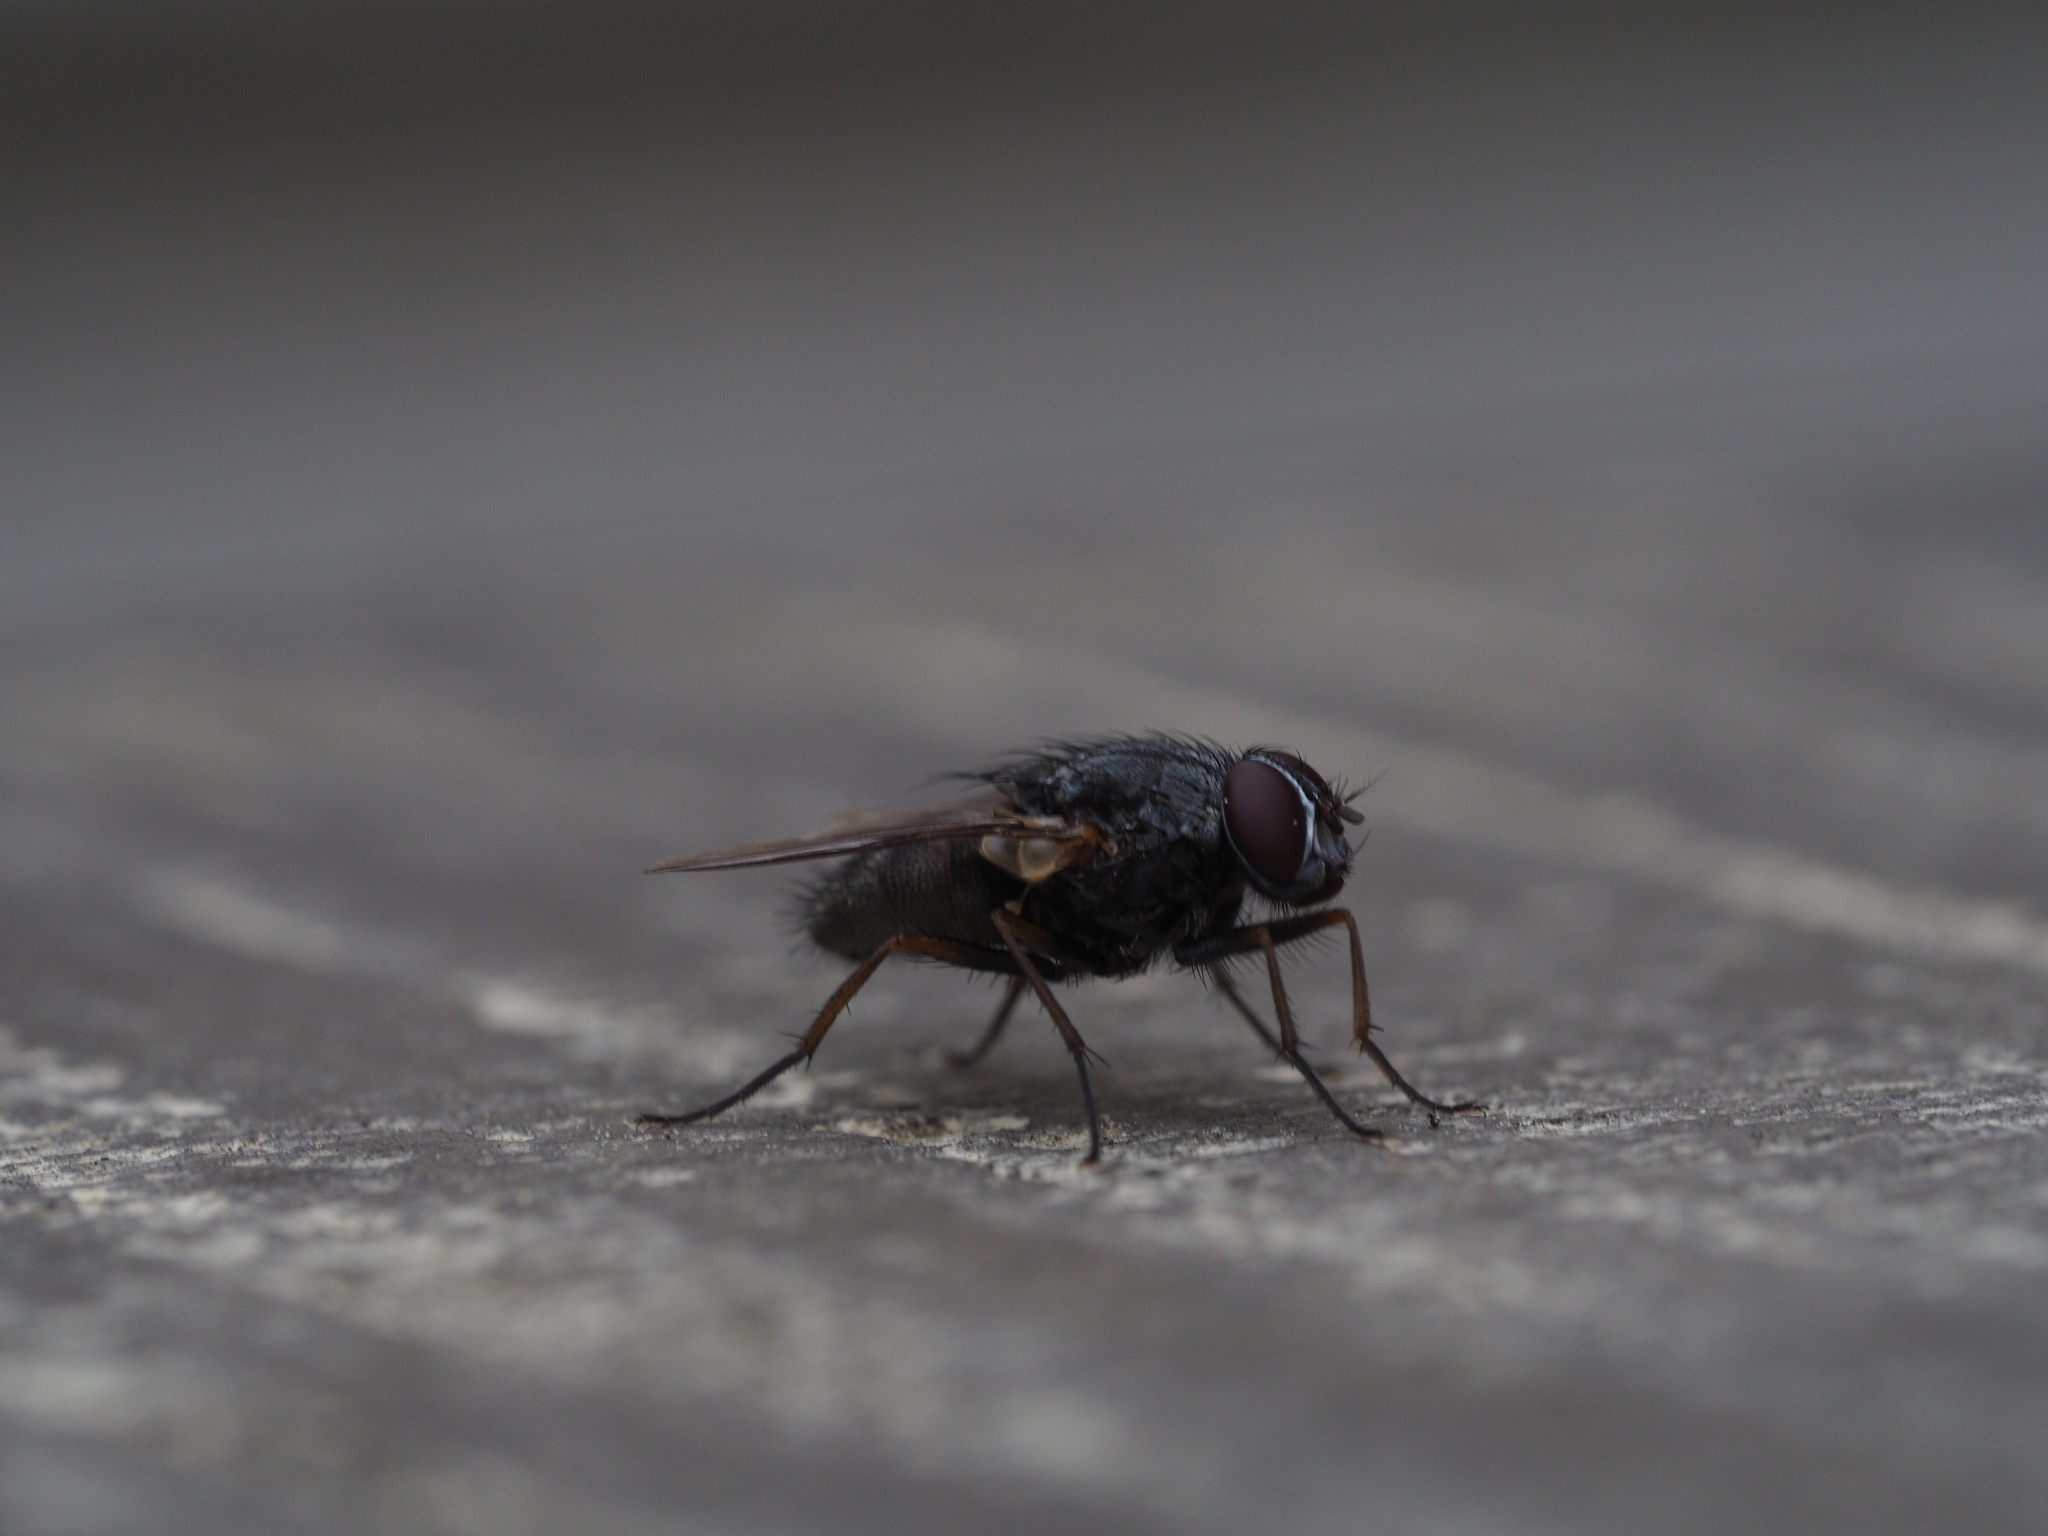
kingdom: Animalia
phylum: Arthropoda
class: Insecta
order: Diptera
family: Muscidae
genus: Muscina
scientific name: Muscina stabulans
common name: False stable fly
